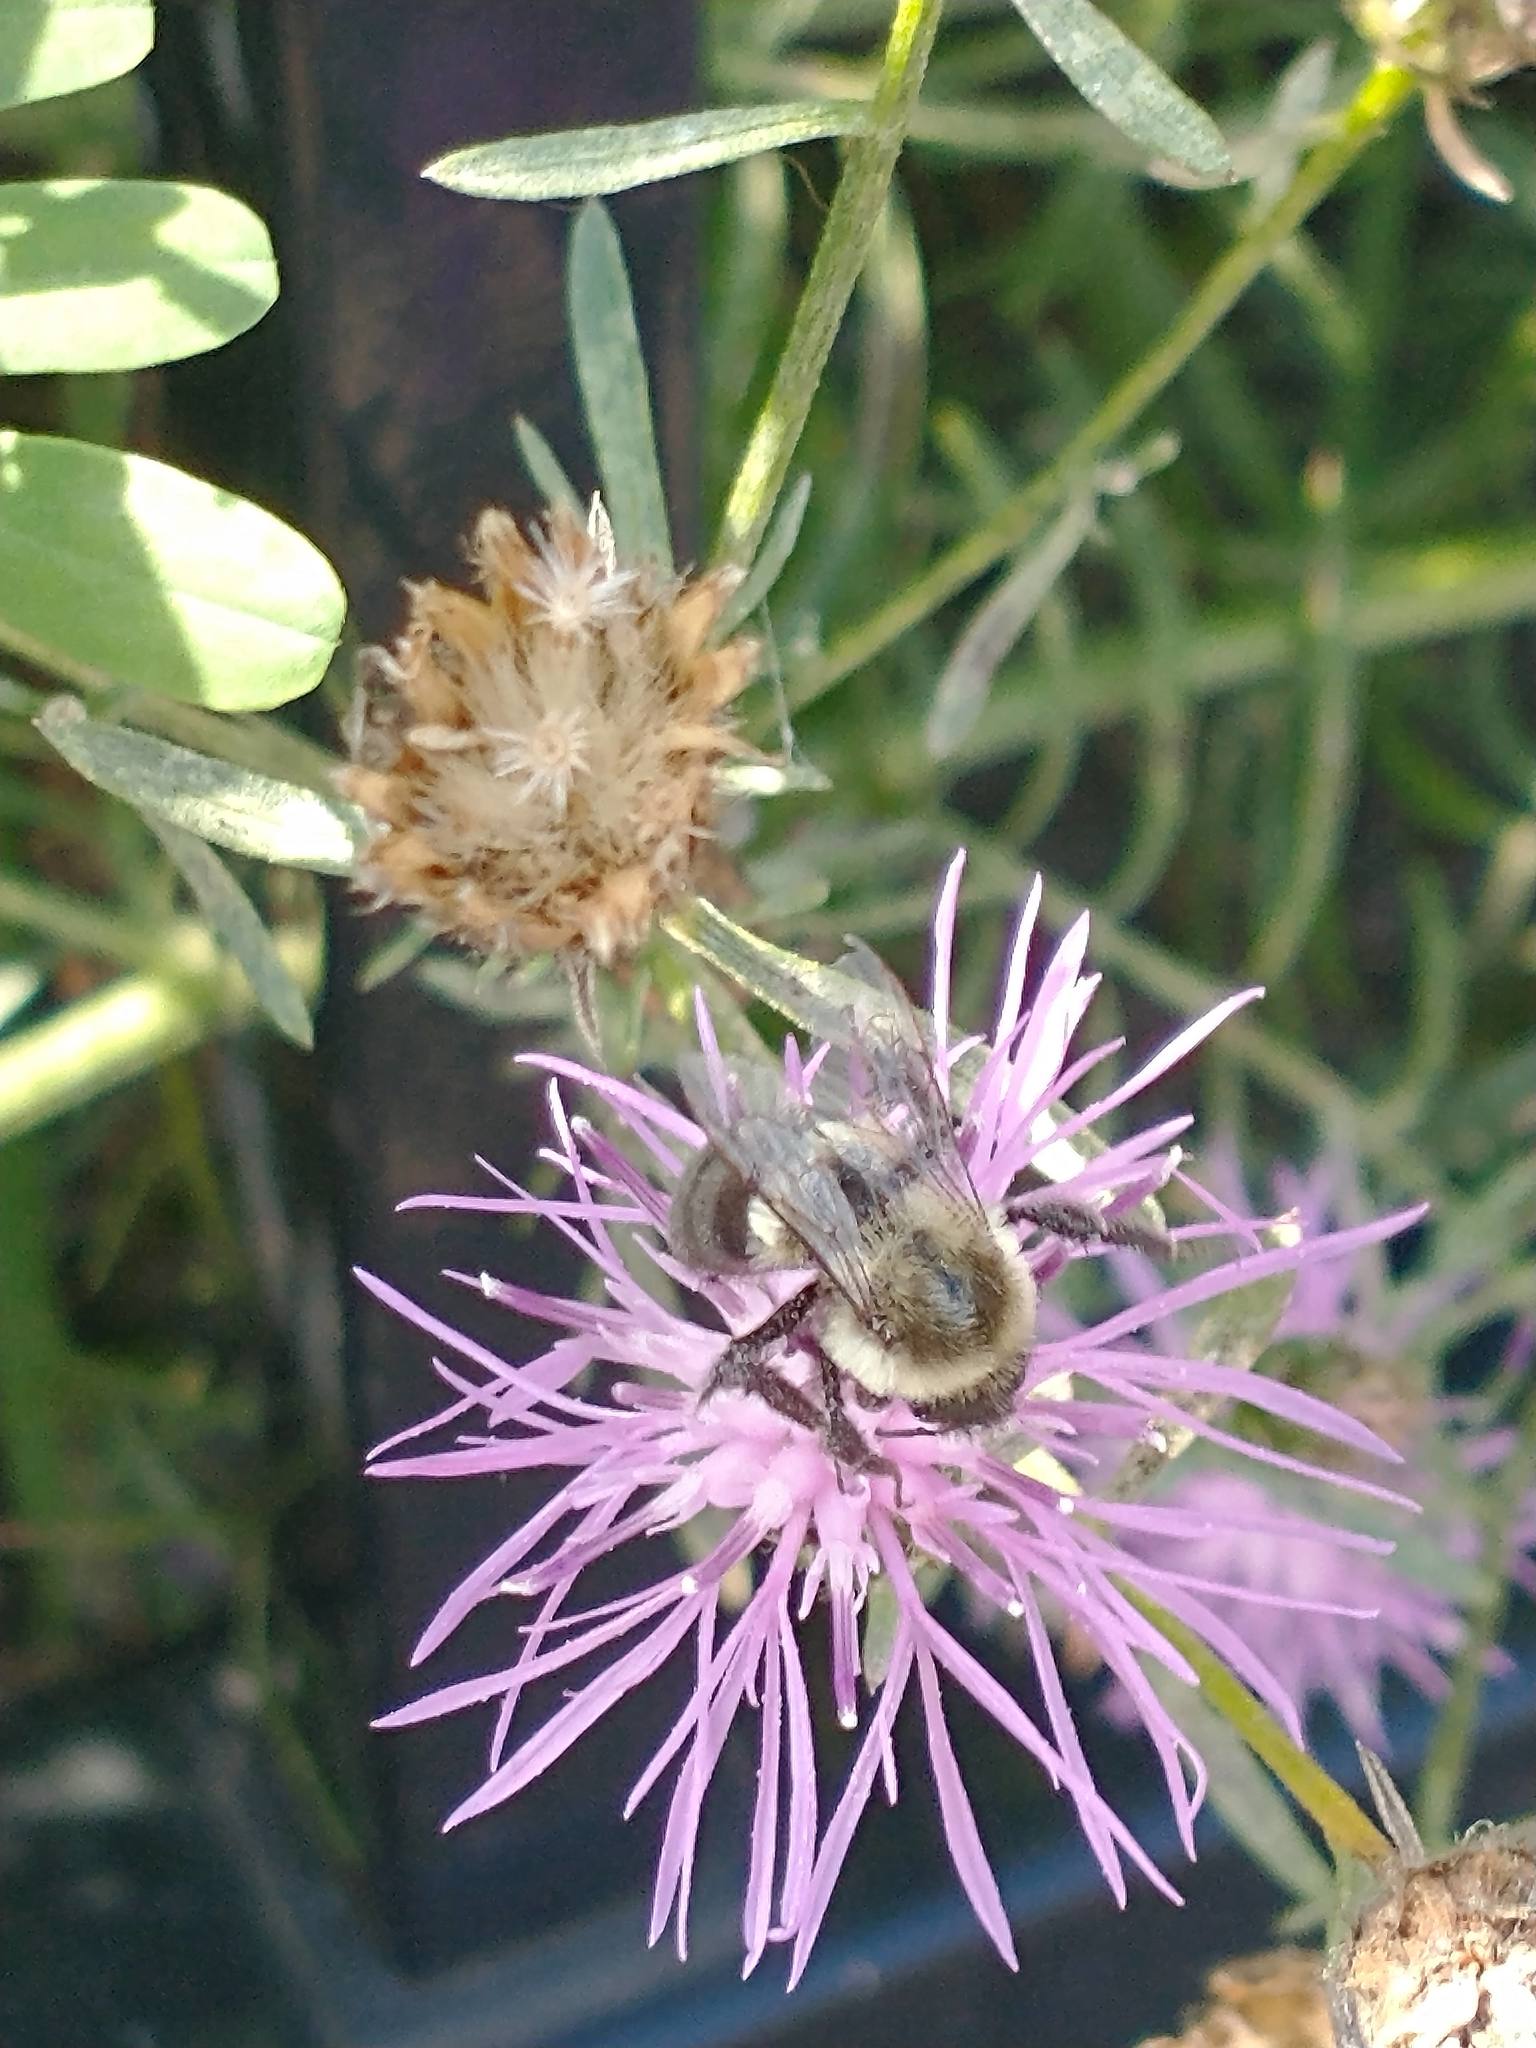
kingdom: Animalia
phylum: Arthropoda
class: Insecta
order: Hymenoptera
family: Apidae
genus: Bombus
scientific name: Bombus impatiens
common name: Common eastern bumble bee
